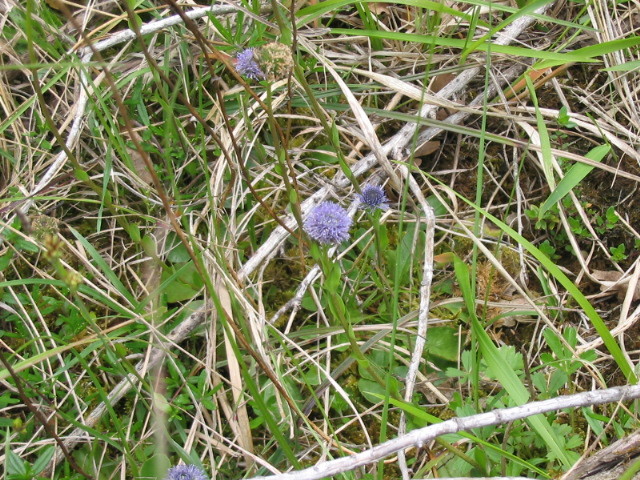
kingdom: Plantae
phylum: Tracheophyta
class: Magnoliopsida
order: Lamiales
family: Plantaginaceae
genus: Globularia
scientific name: Globularia bisnagarica
